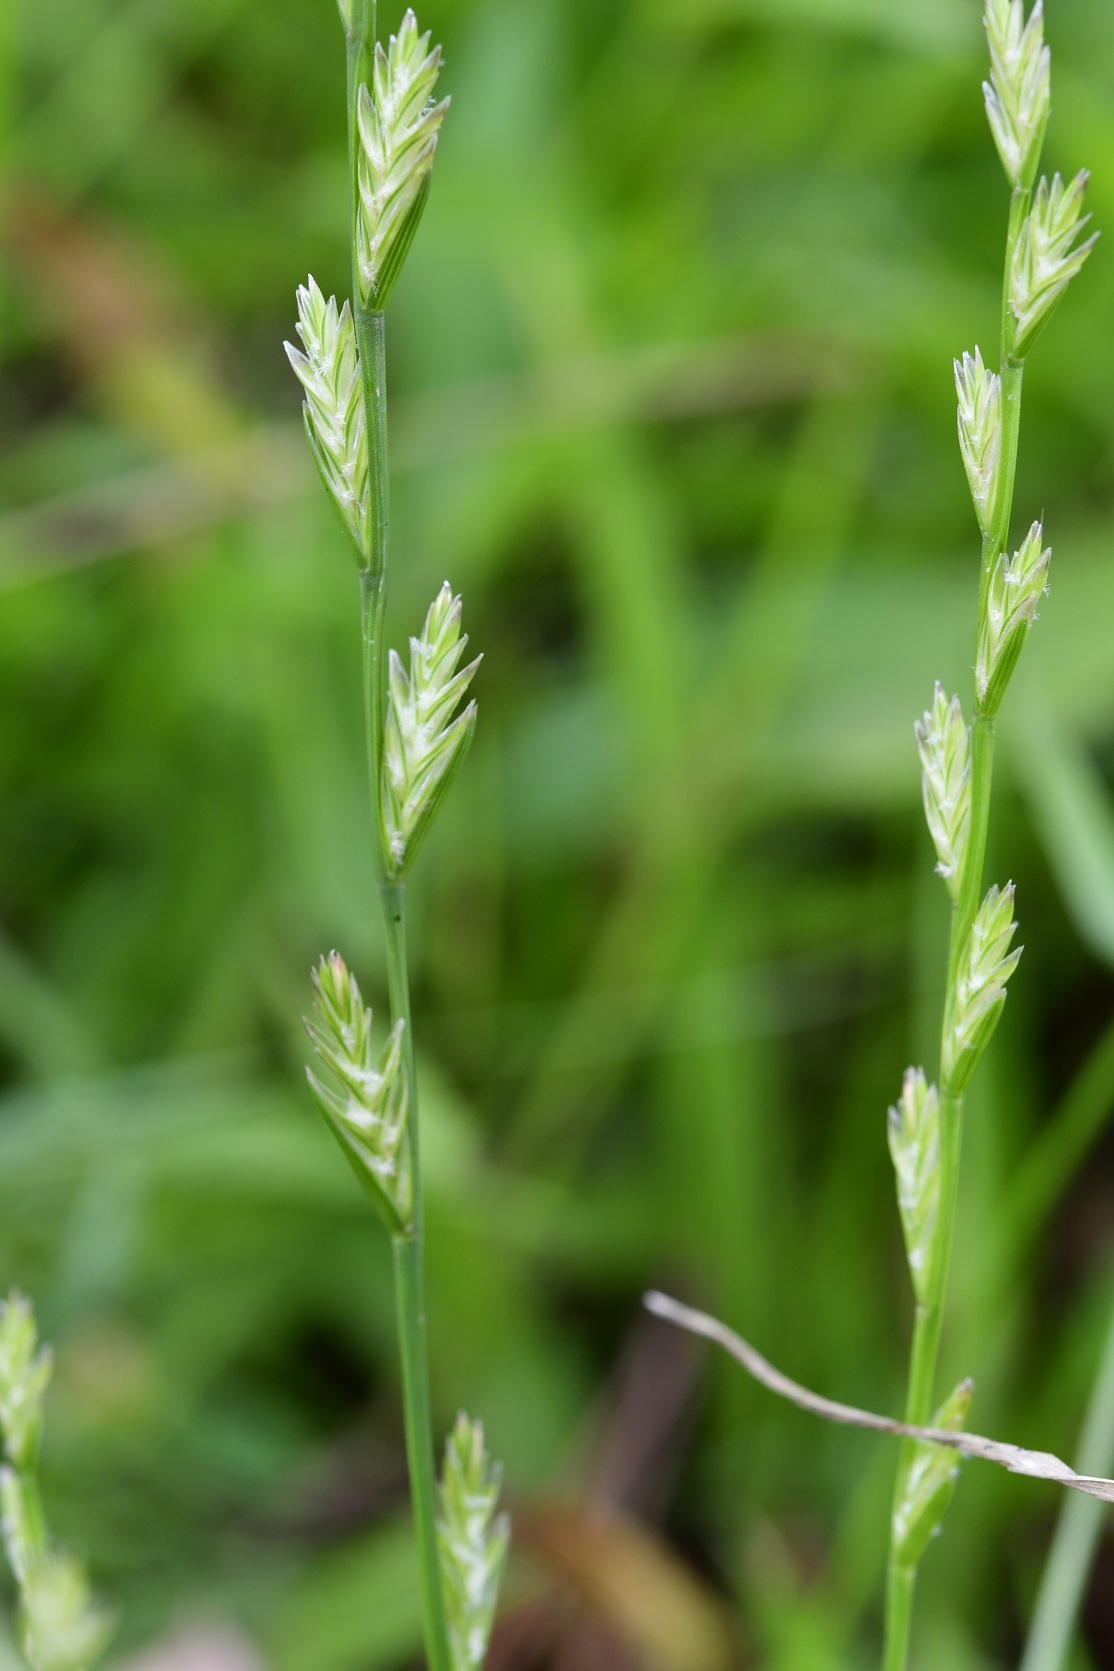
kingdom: Plantae
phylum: Tracheophyta
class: Liliopsida
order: Poales
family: Poaceae
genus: Lolium
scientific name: Lolium perenne
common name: Perennial ryegrass
